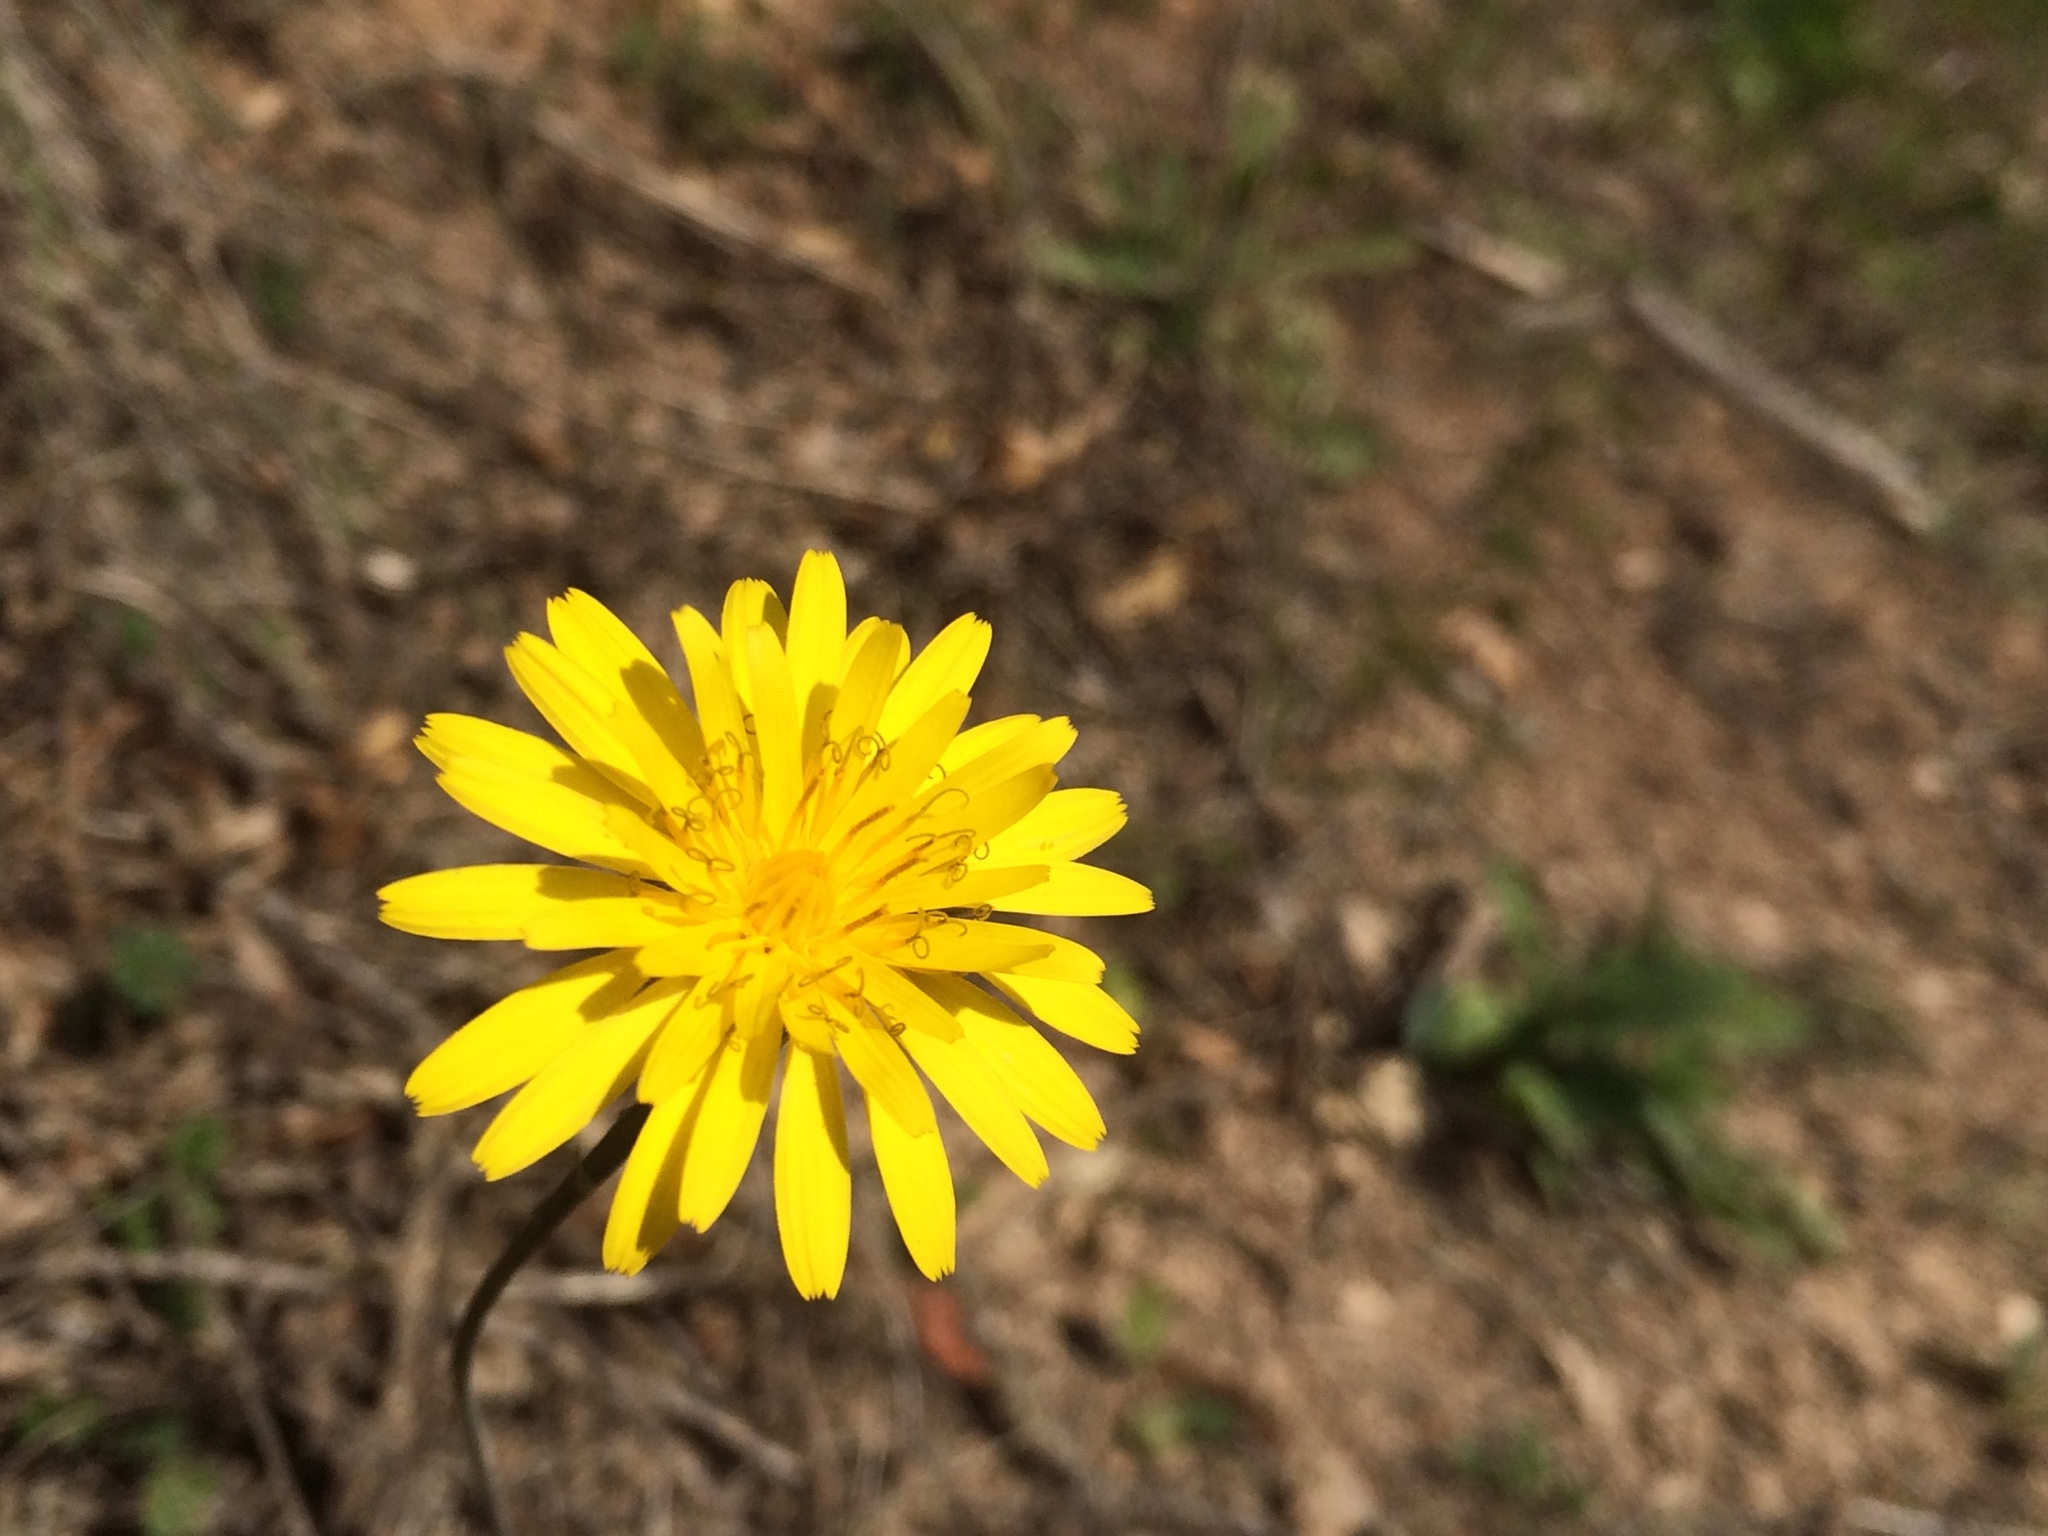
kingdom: Plantae
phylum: Tracheophyta
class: Magnoliopsida
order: Asterales
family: Asteraceae
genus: Reichardia
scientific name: Reichardia picroides
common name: Common brighteyes
